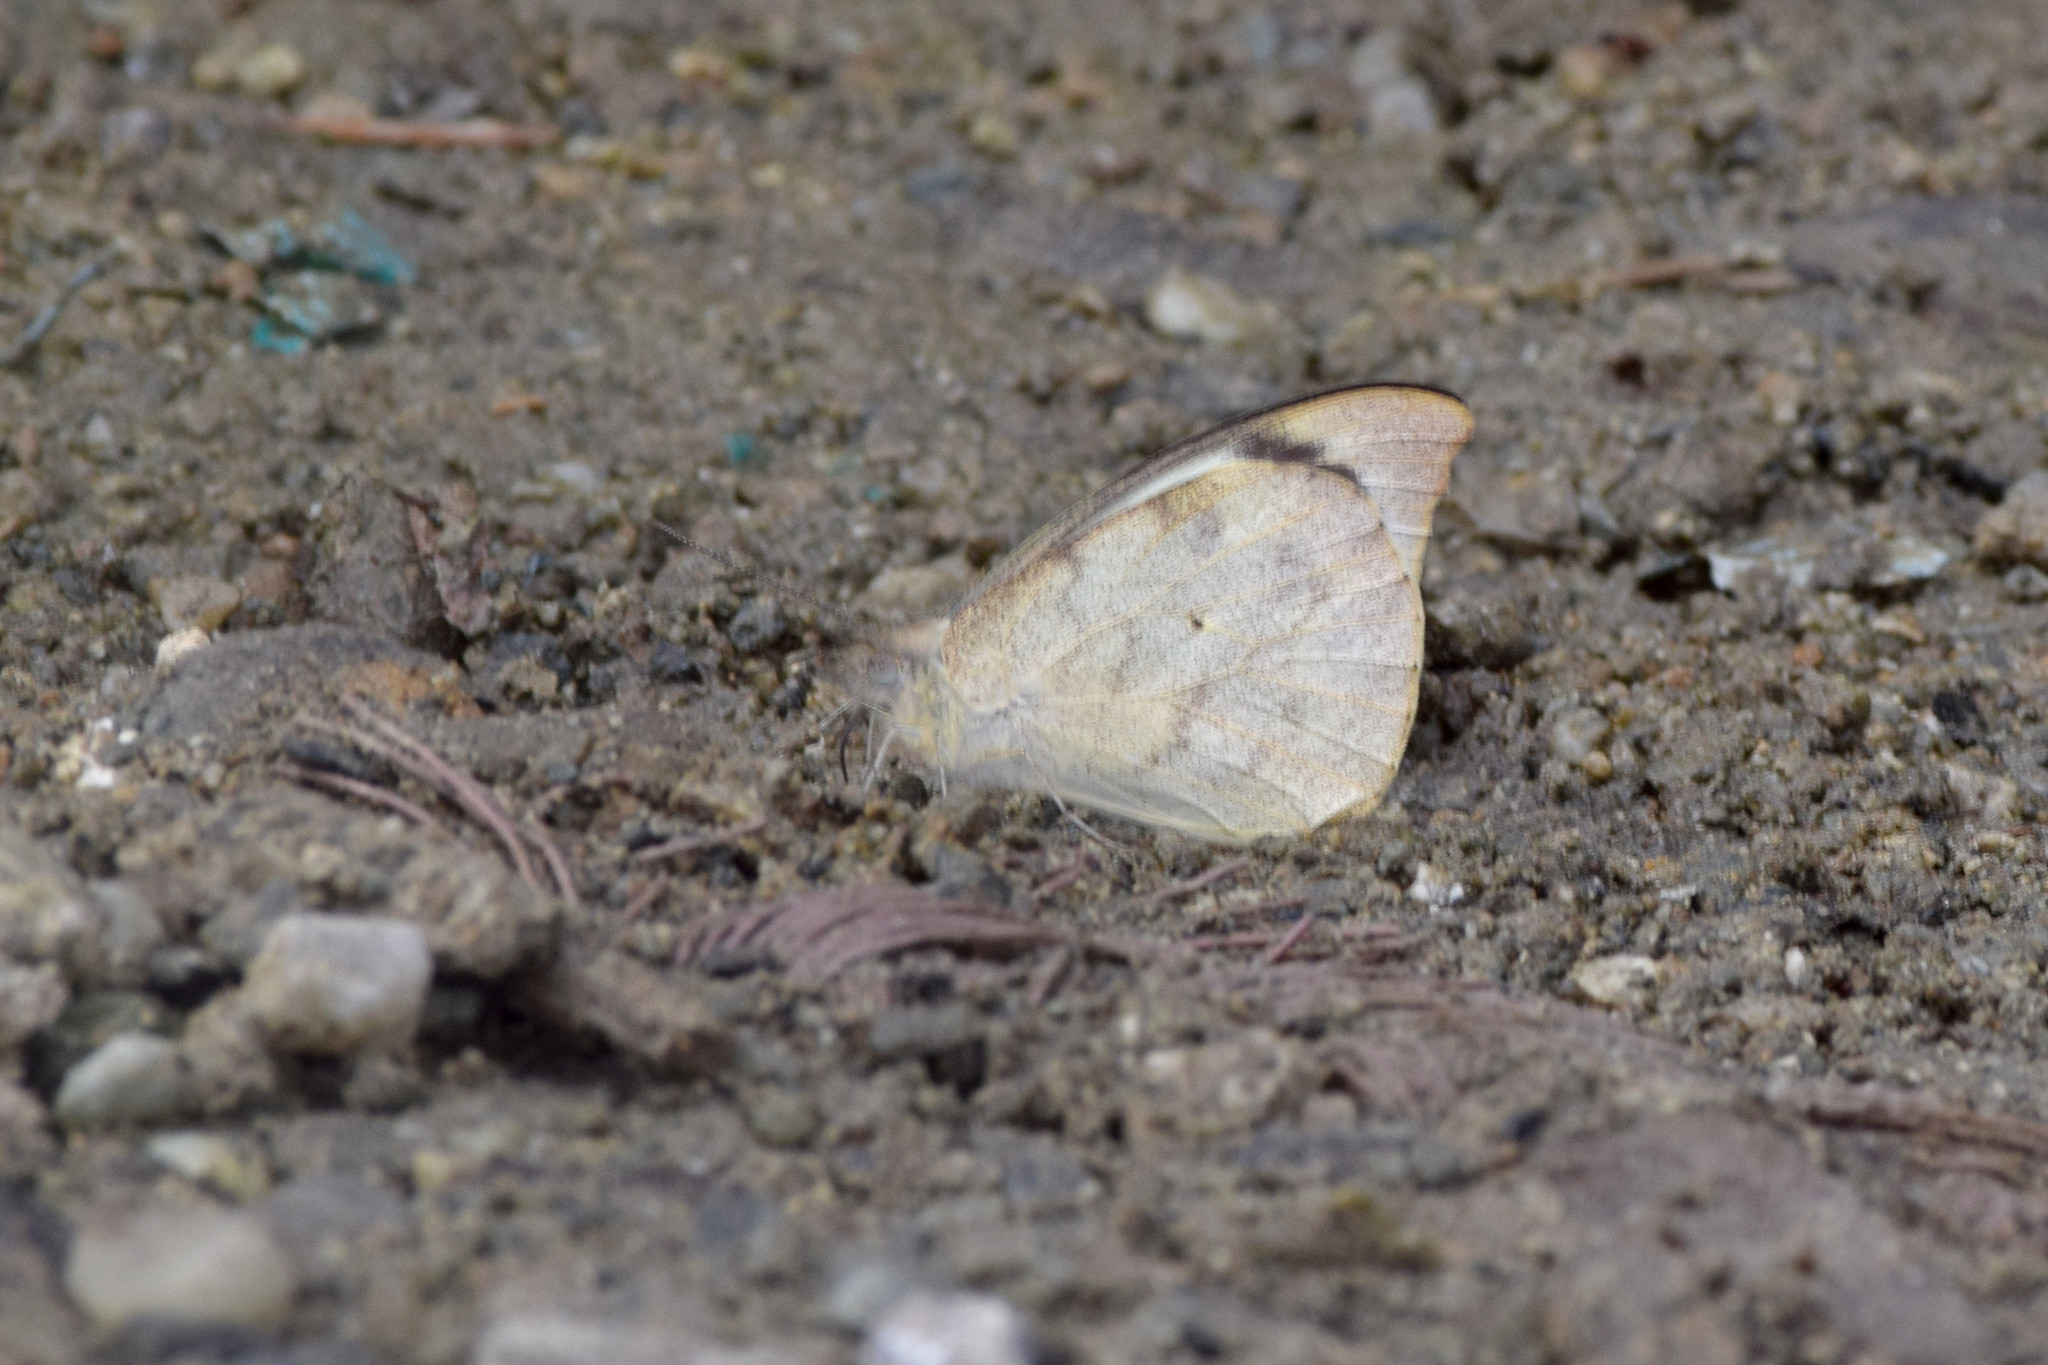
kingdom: Animalia
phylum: Arthropoda
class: Insecta
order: Lepidoptera
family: Pieridae
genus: Appias
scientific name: Appias lalage
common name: Spot puffin
